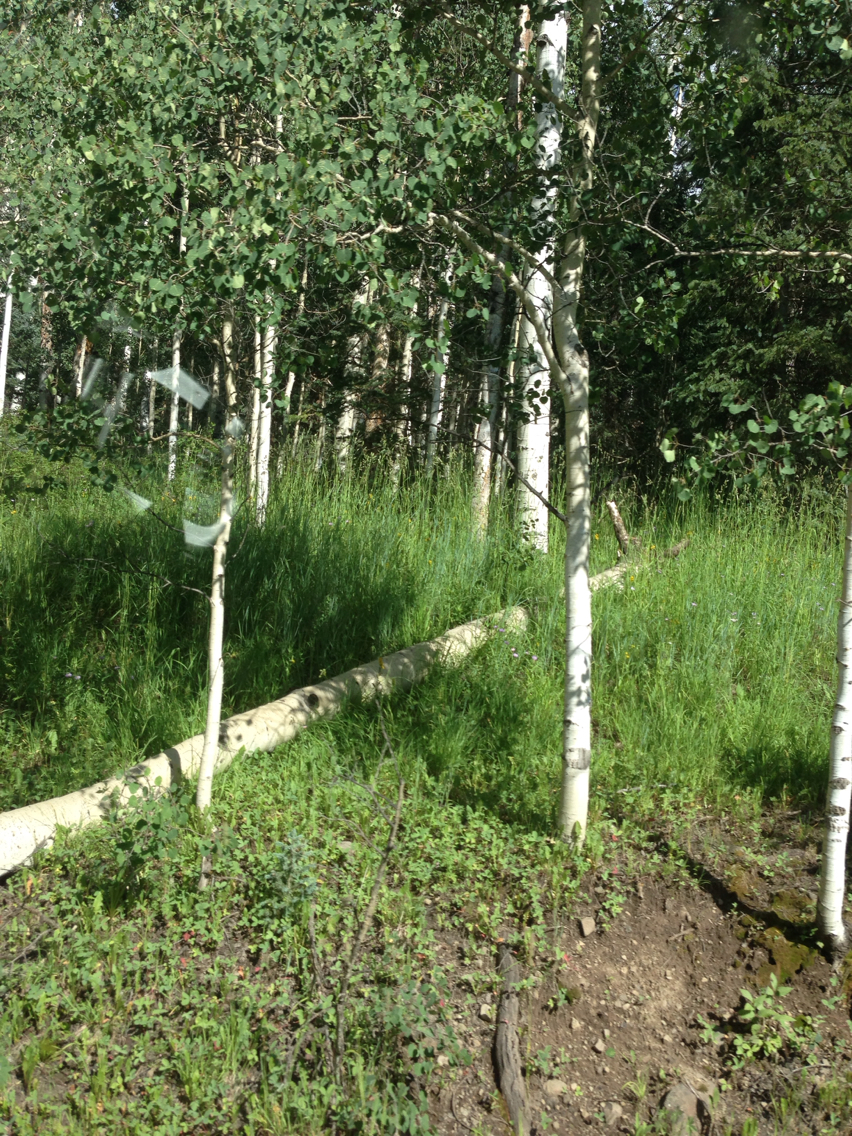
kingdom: Plantae
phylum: Tracheophyta
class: Magnoliopsida
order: Malpighiales
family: Salicaceae
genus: Populus
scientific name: Populus tremuloides
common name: Quaking aspen
